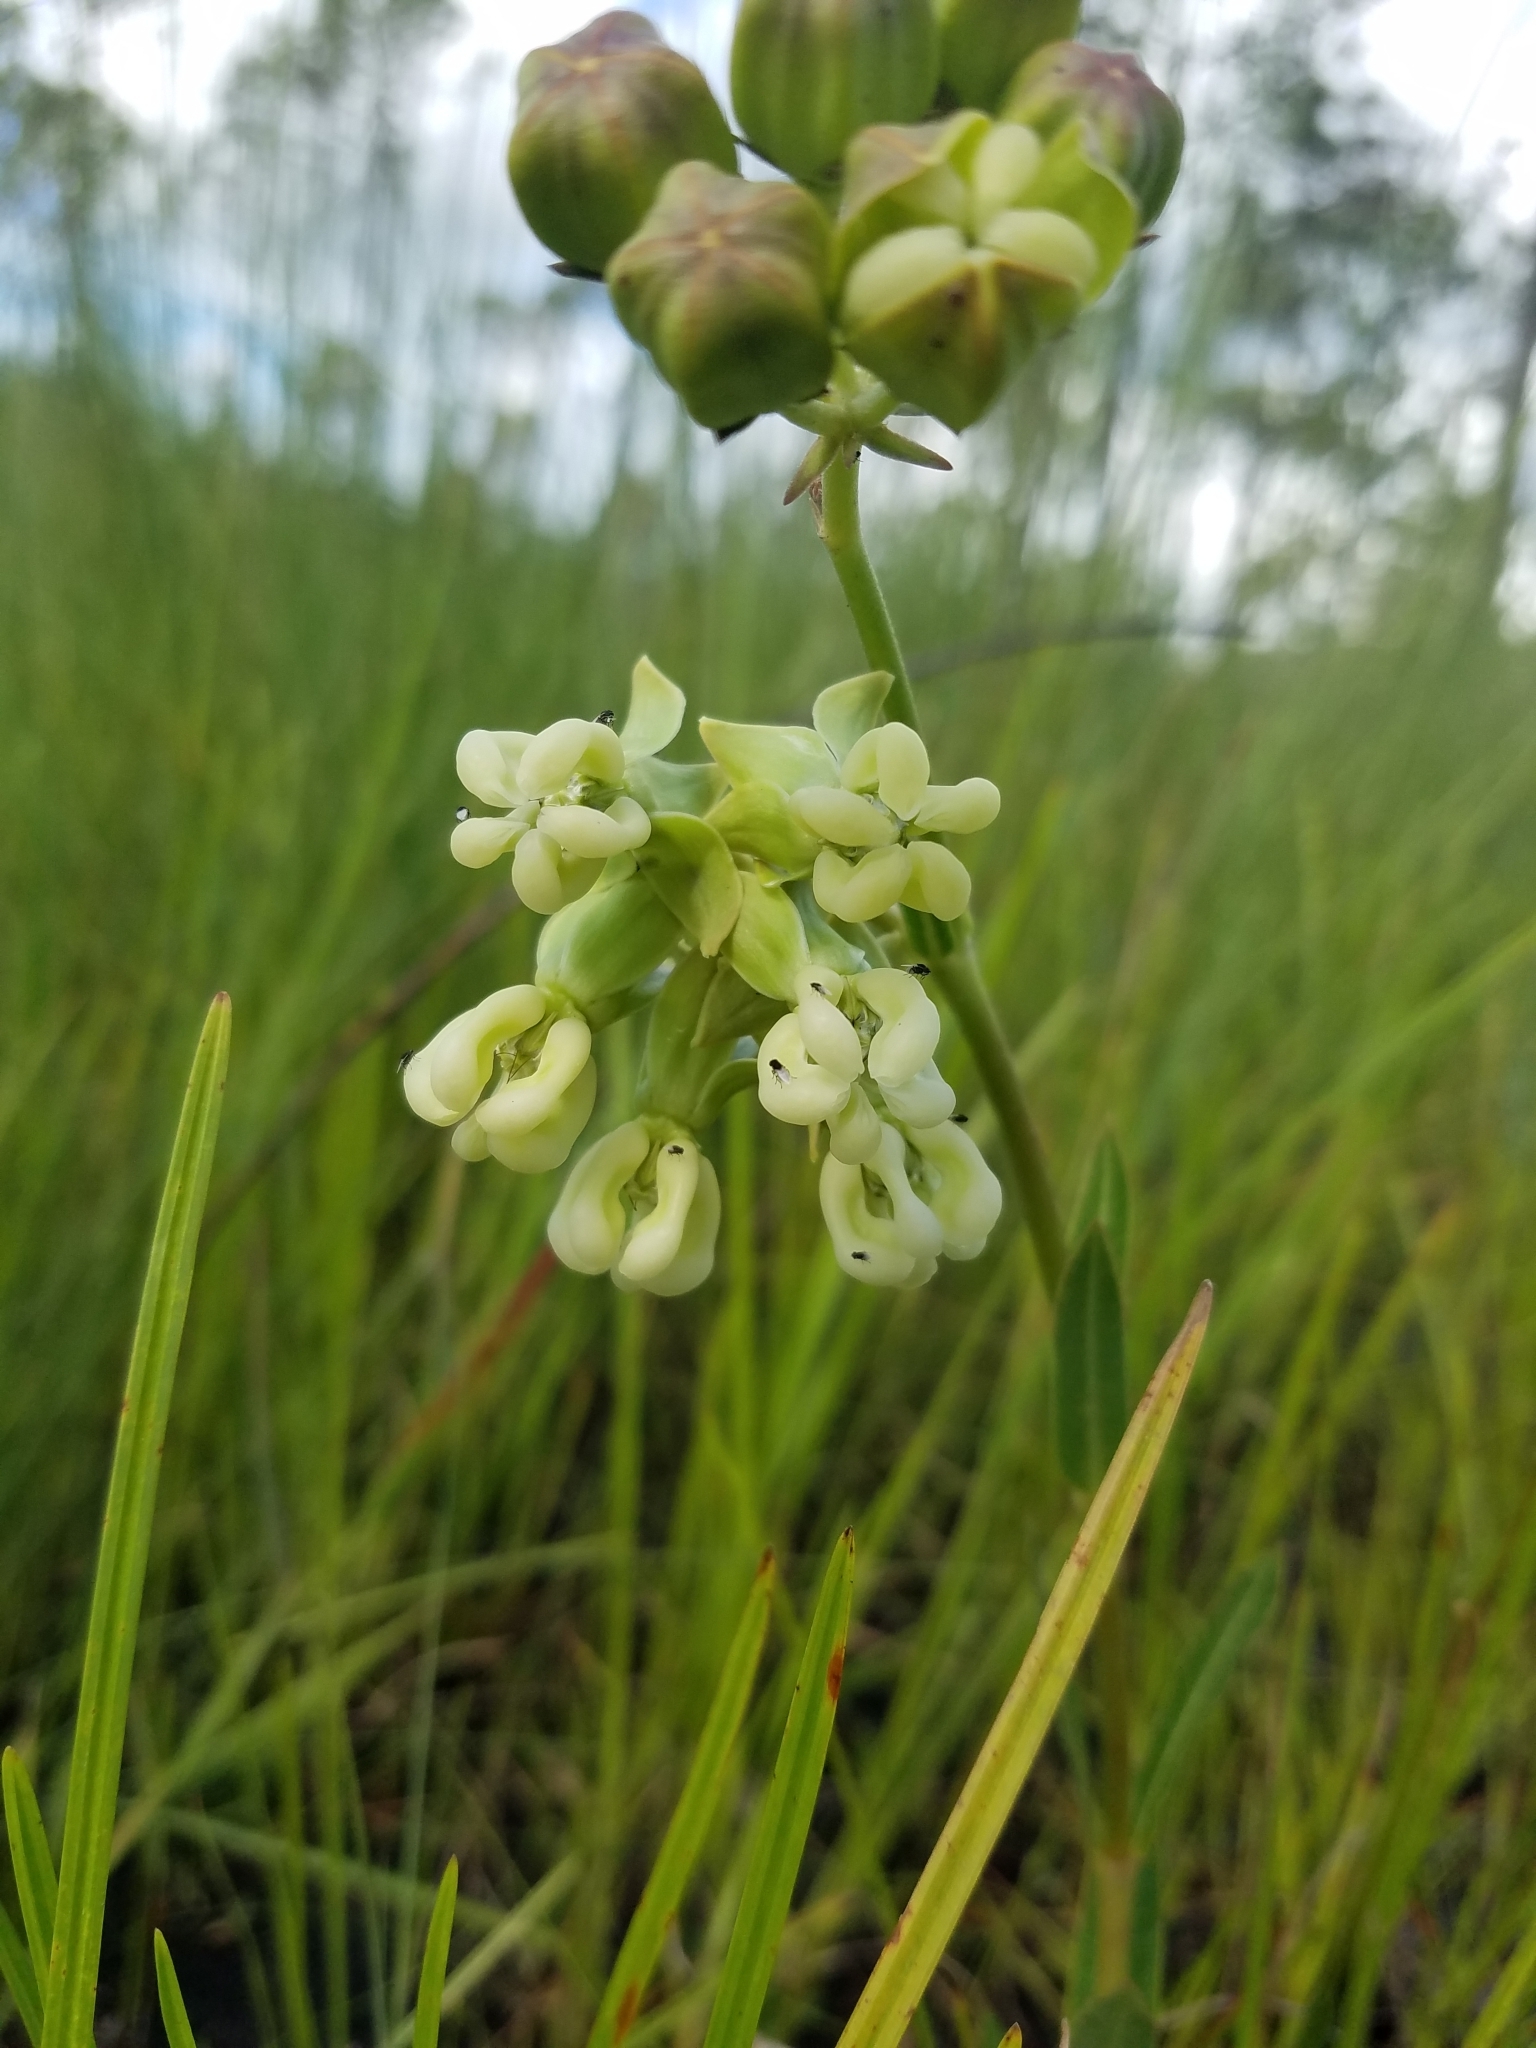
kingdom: Plantae
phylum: Tracheophyta
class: Magnoliopsida
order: Gentianales
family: Apocynaceae
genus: Asclepias
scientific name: Asclepias connivens
